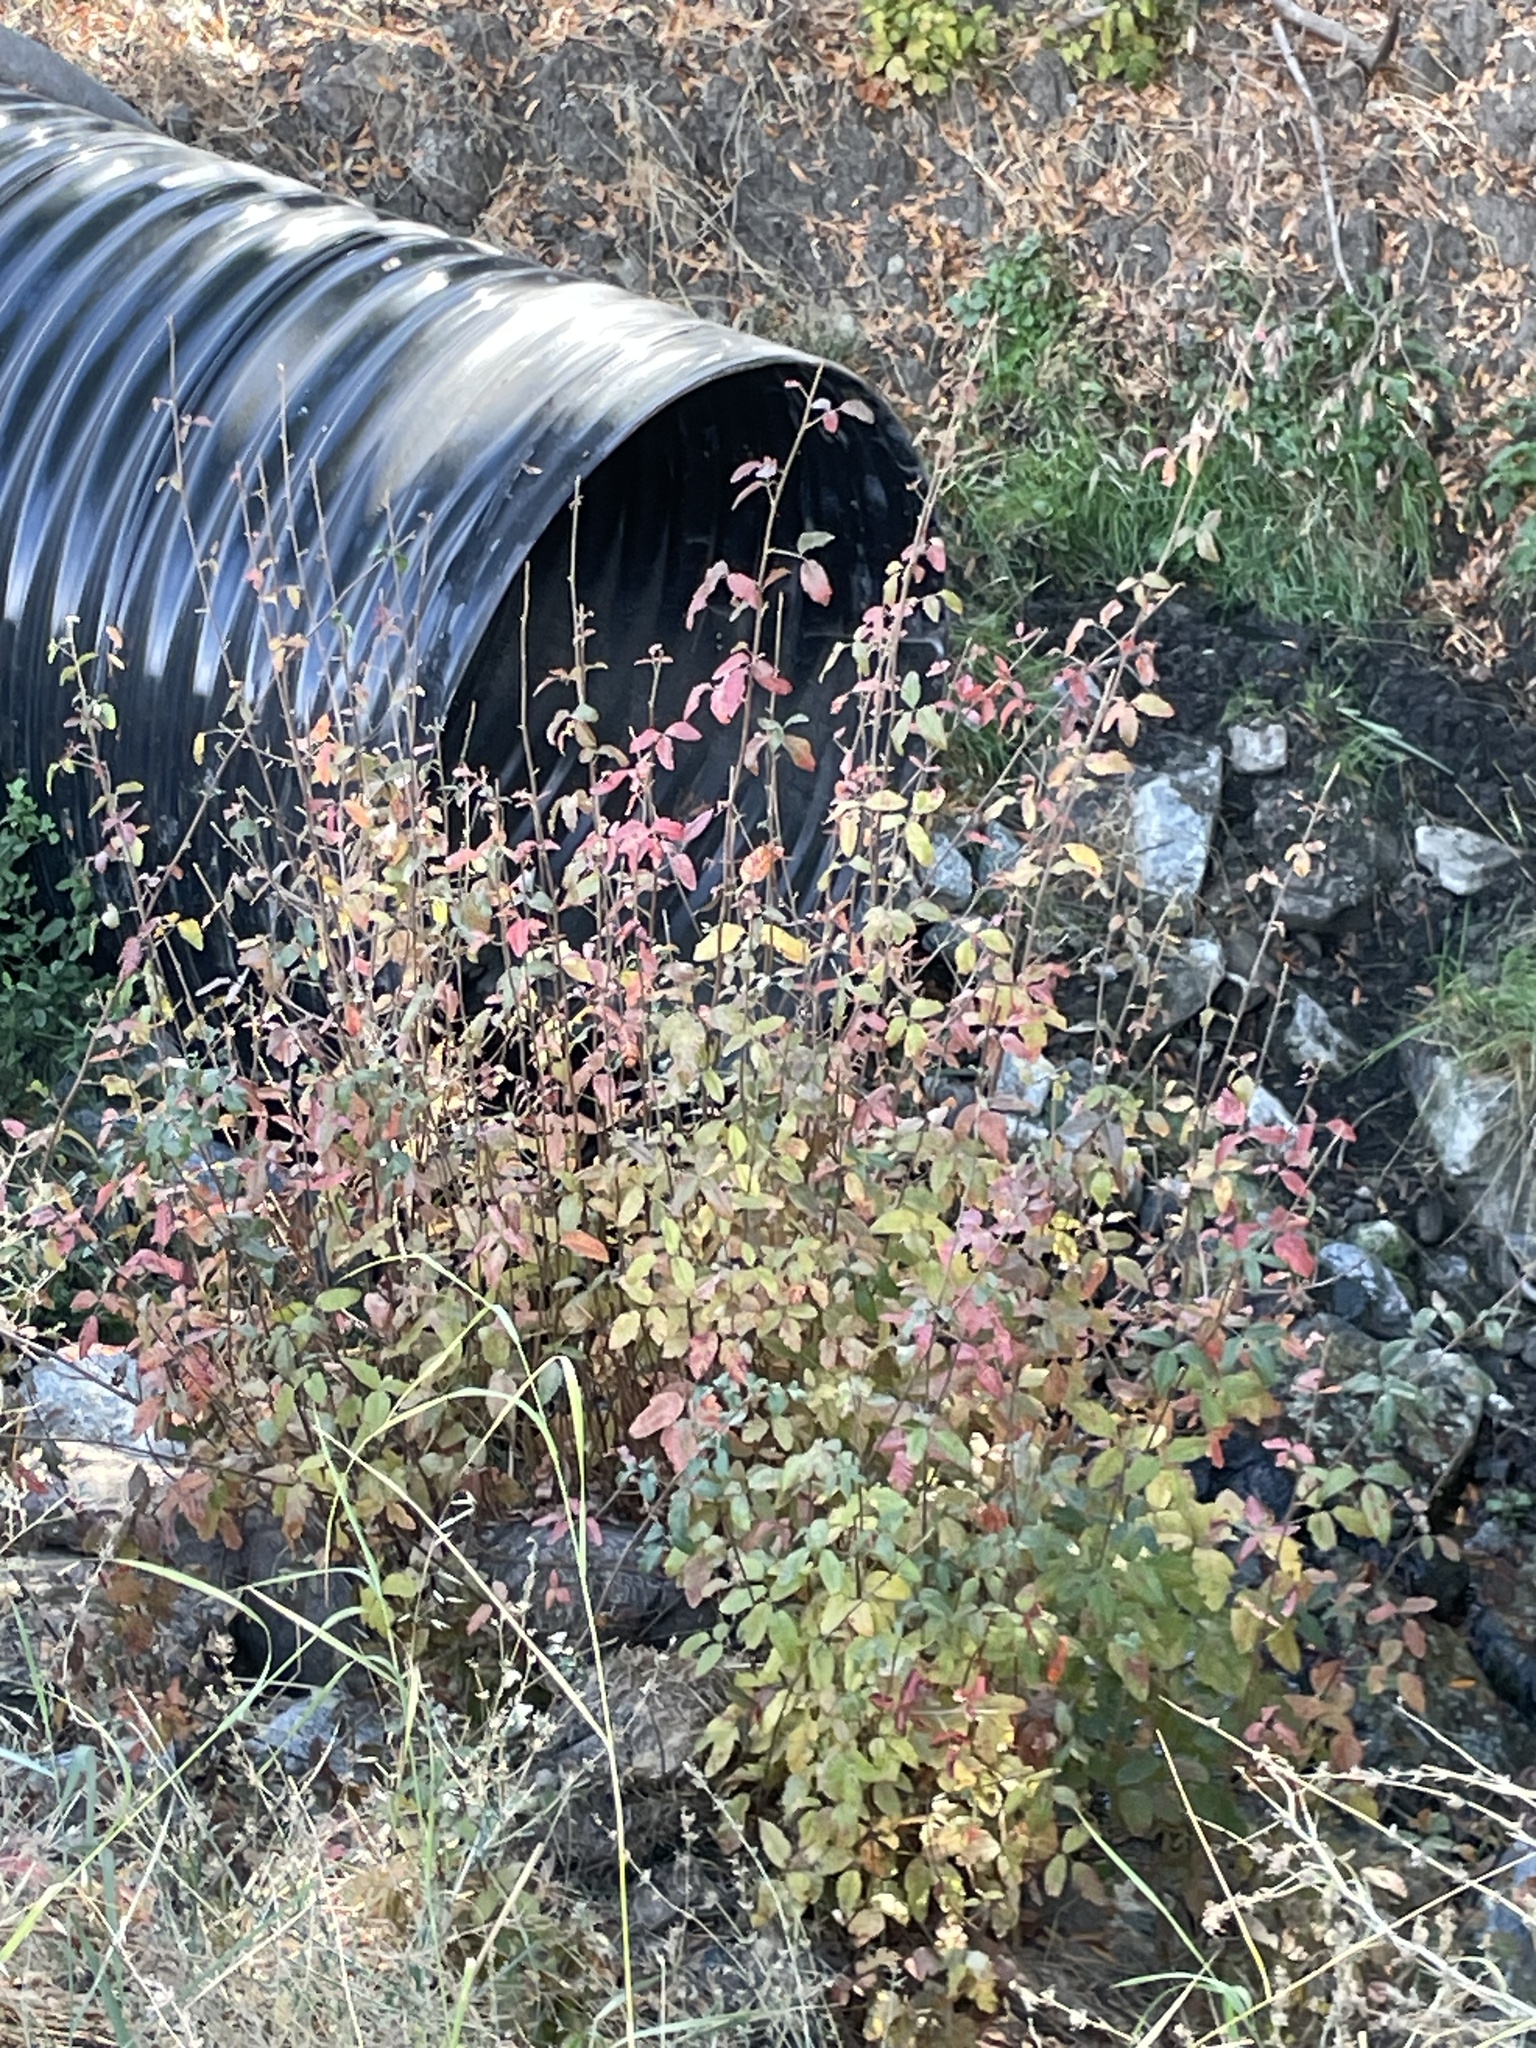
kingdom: Plantae
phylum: Tracheophyta
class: Magnoliopsida
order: Sapindales
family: Anacardiaceae
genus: Toxicodendron
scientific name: Toxicodendron diversilobum
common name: Pacific poison-oak
